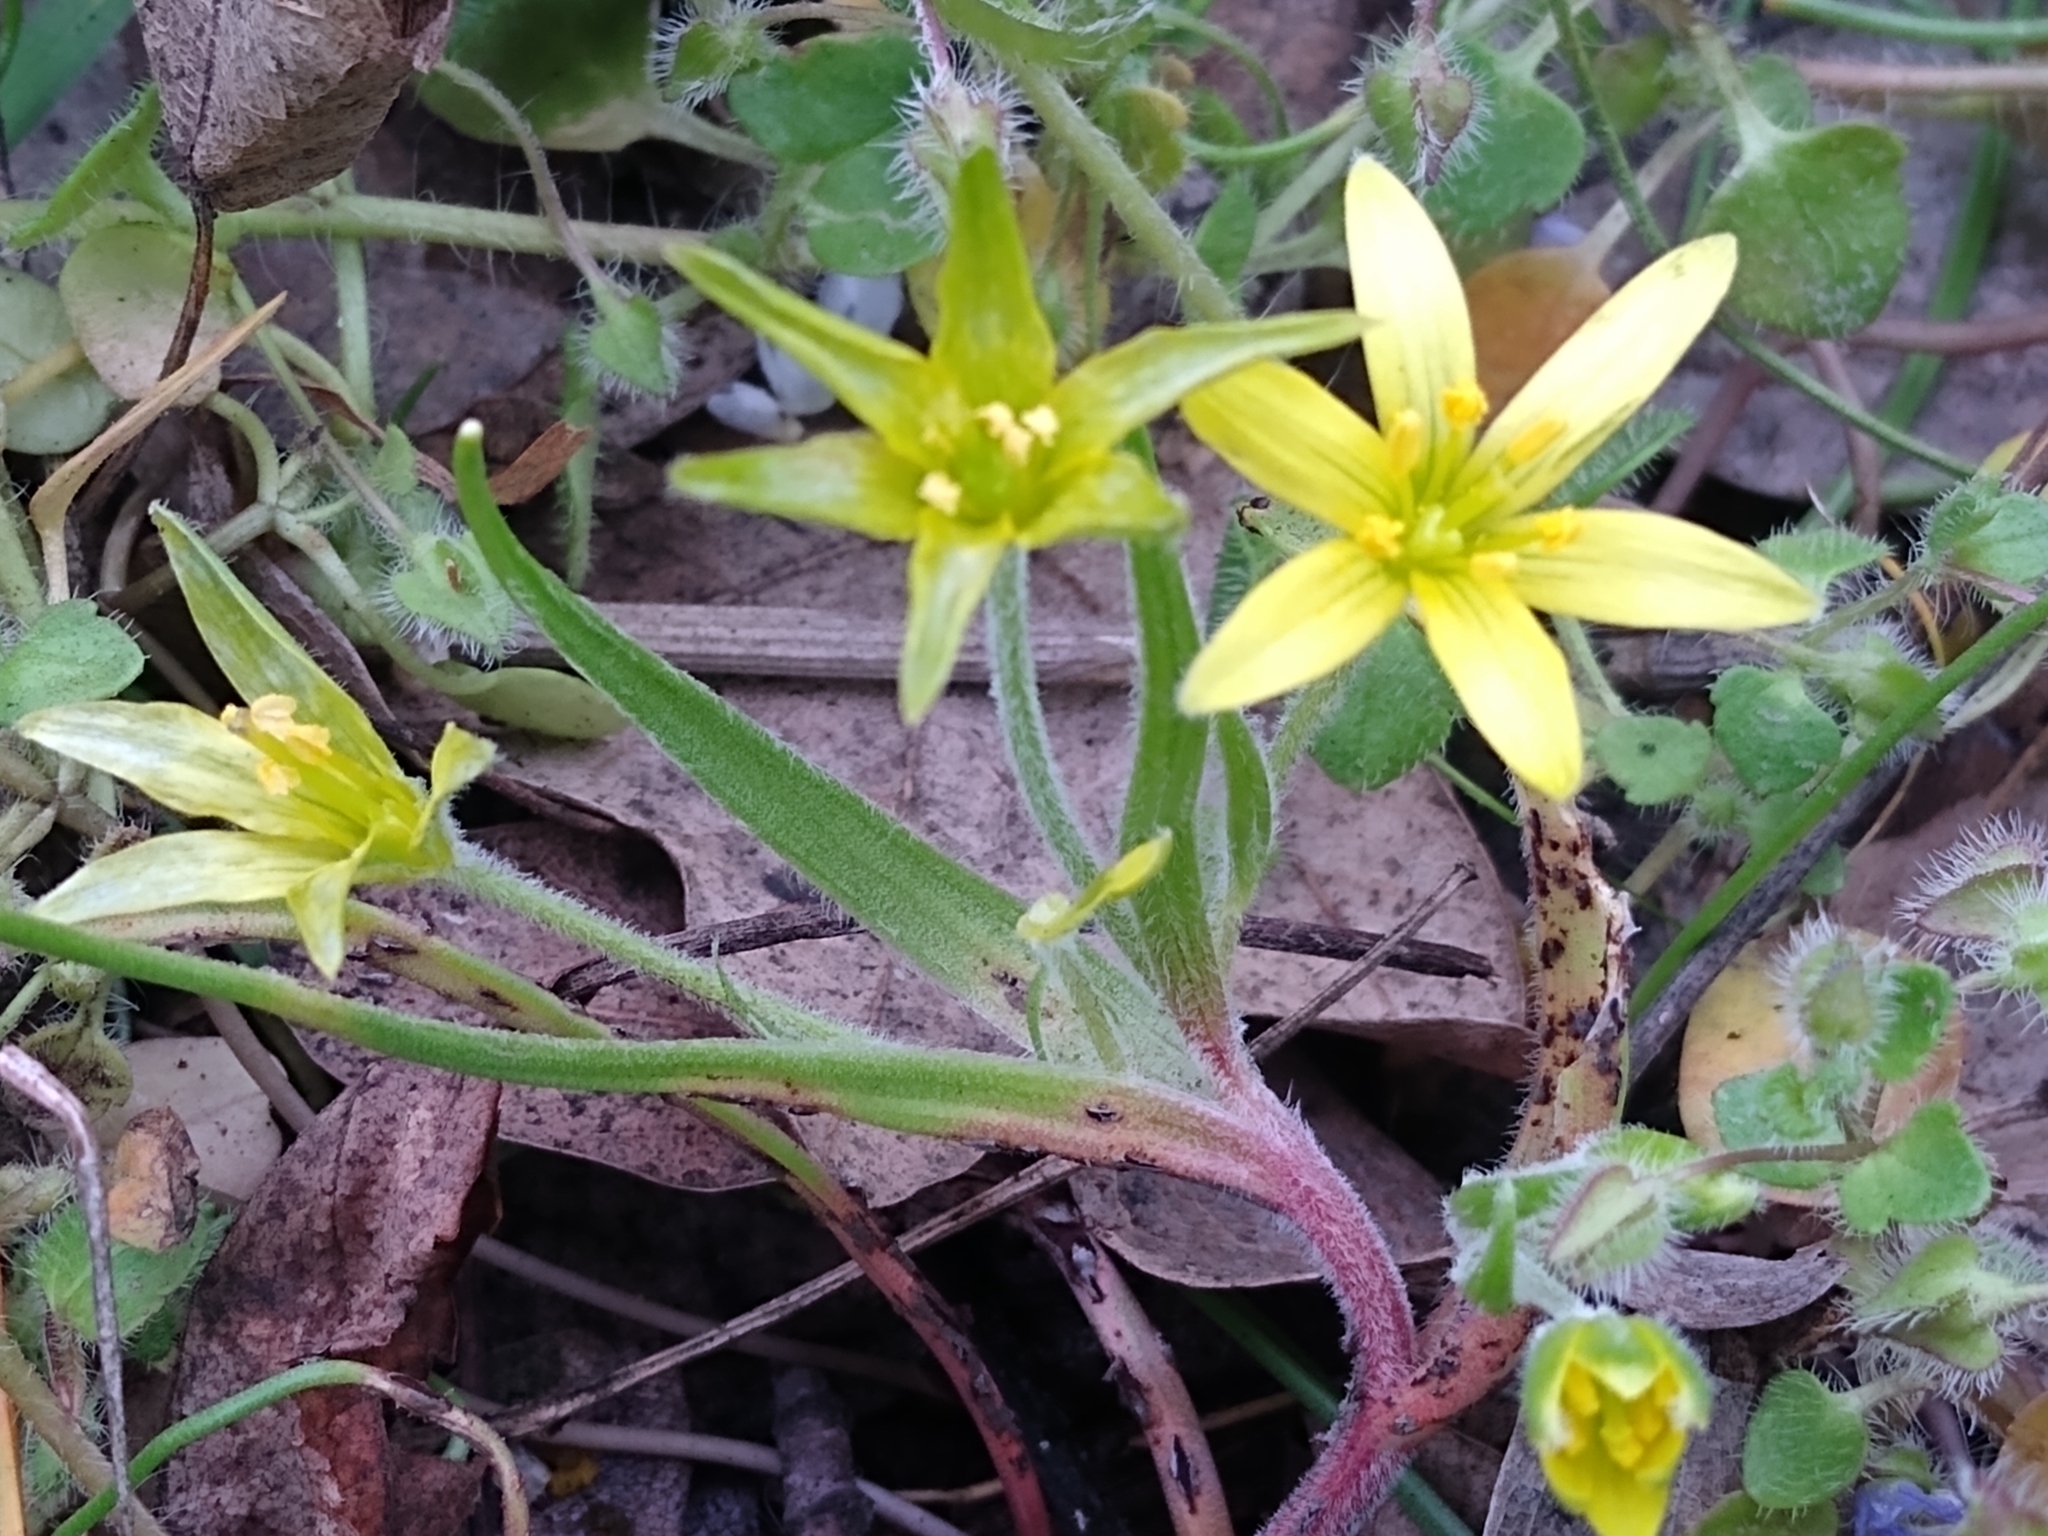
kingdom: Plantae
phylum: Tracheophyta
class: Liliopsida
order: Liliales
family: Liliaceae
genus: Gagea
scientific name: Gagea villosa
